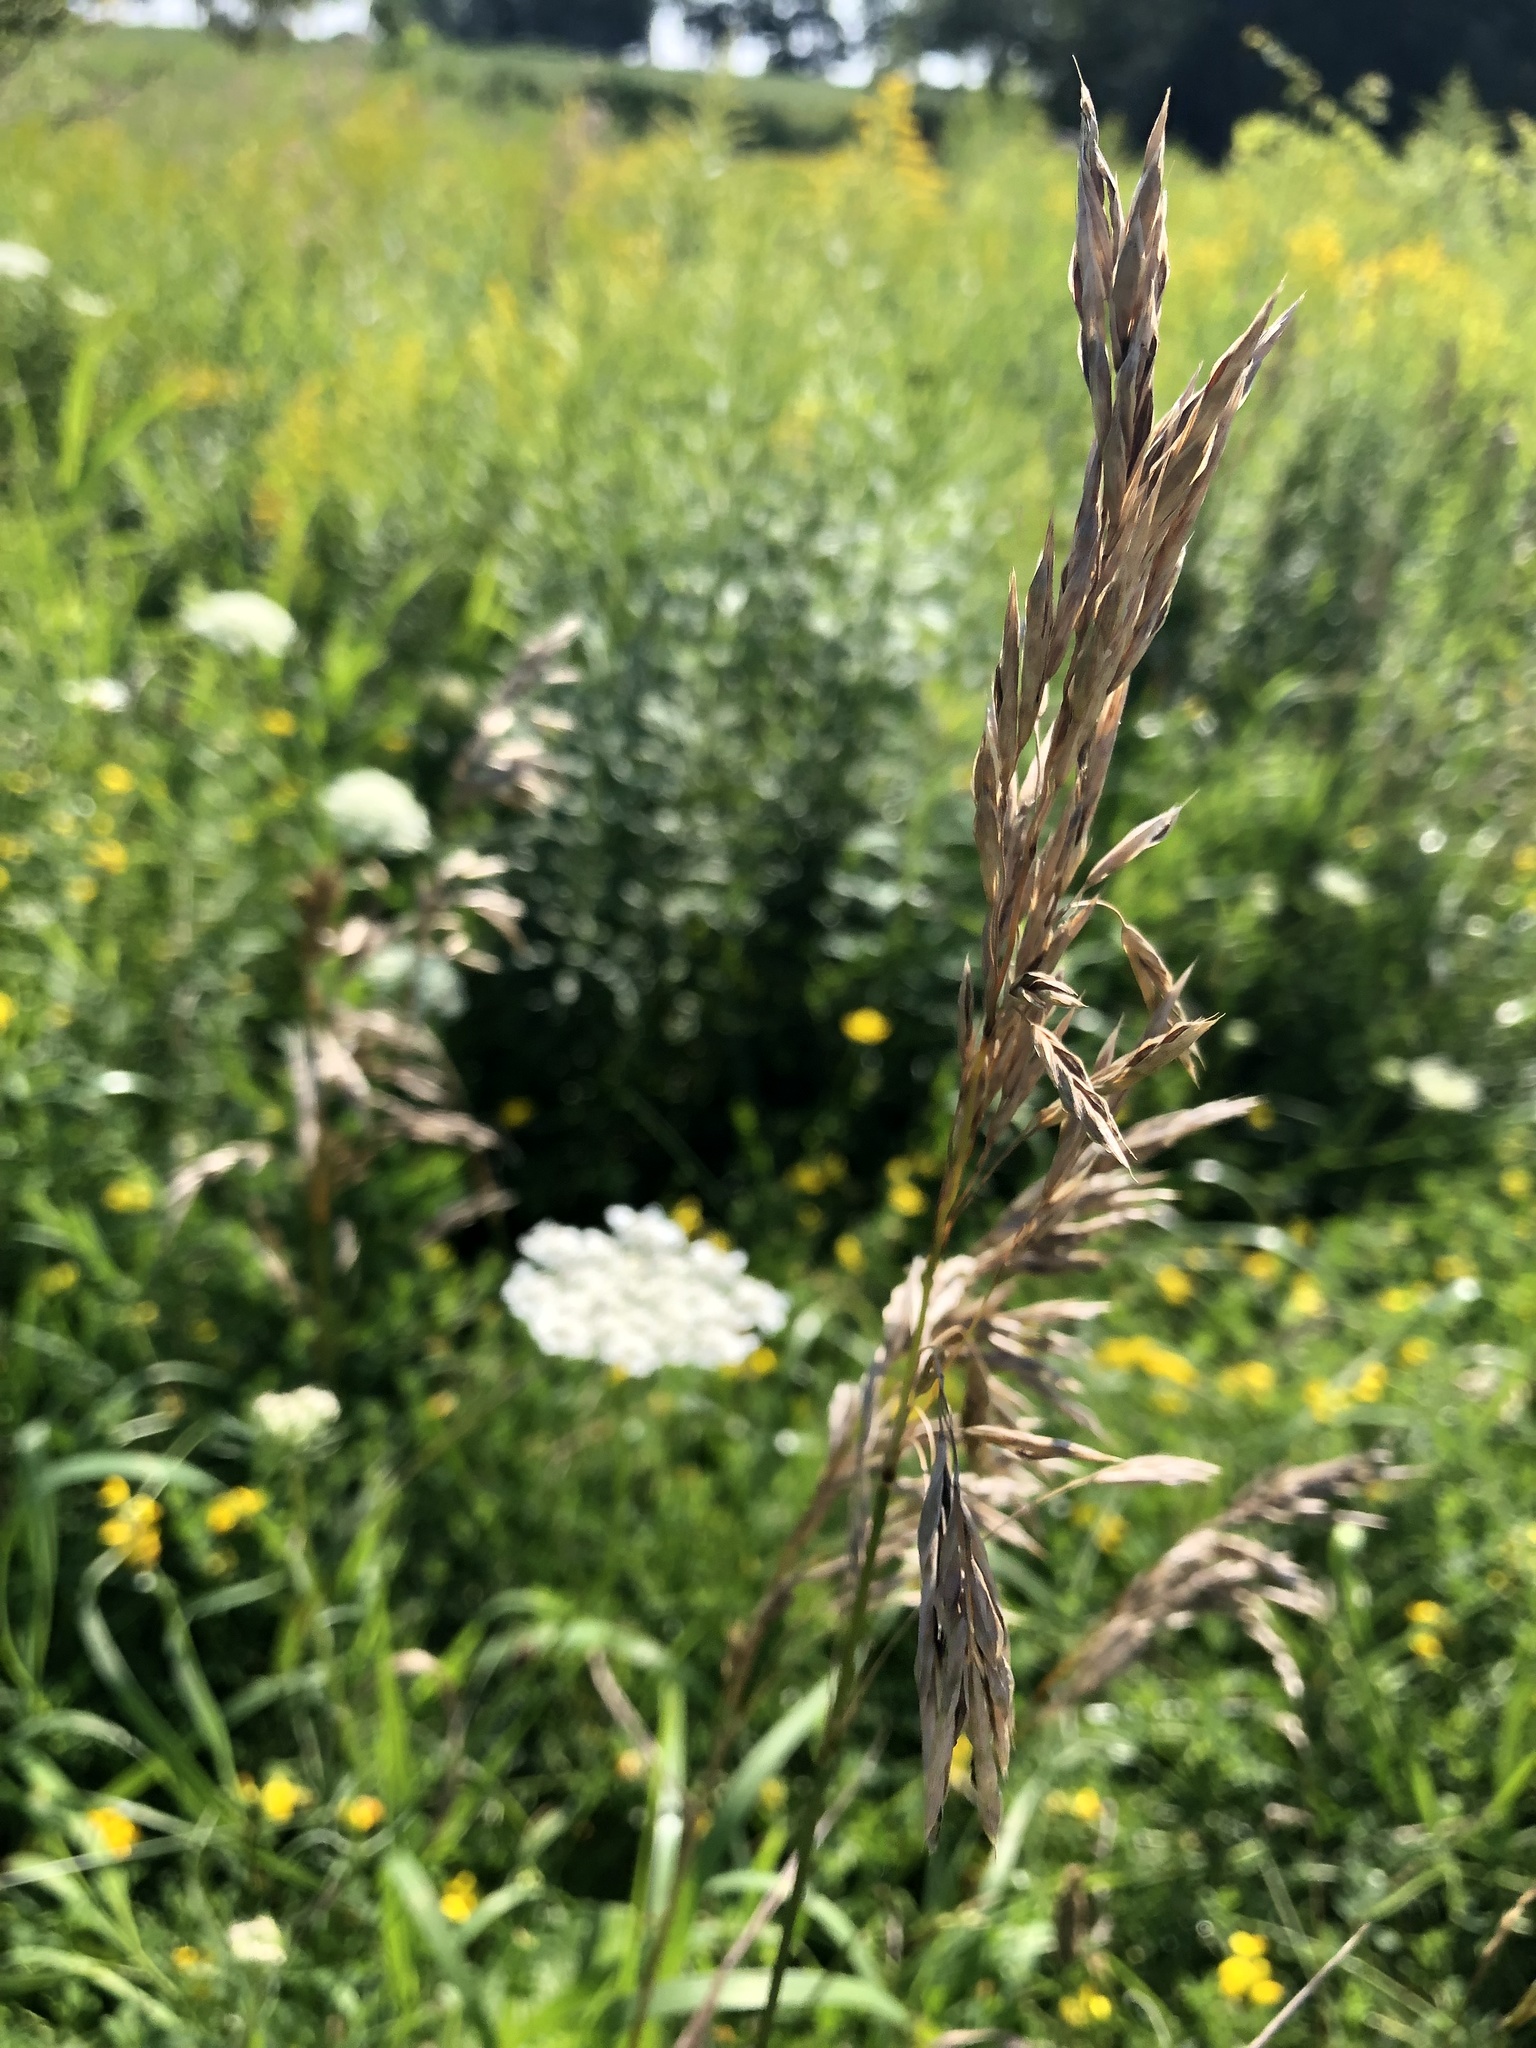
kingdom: Plantae
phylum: Tracheophyta
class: Liliopsida
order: Poales
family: Poaceae
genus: Bromus
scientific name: Bromus inermis
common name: Smooth brome
